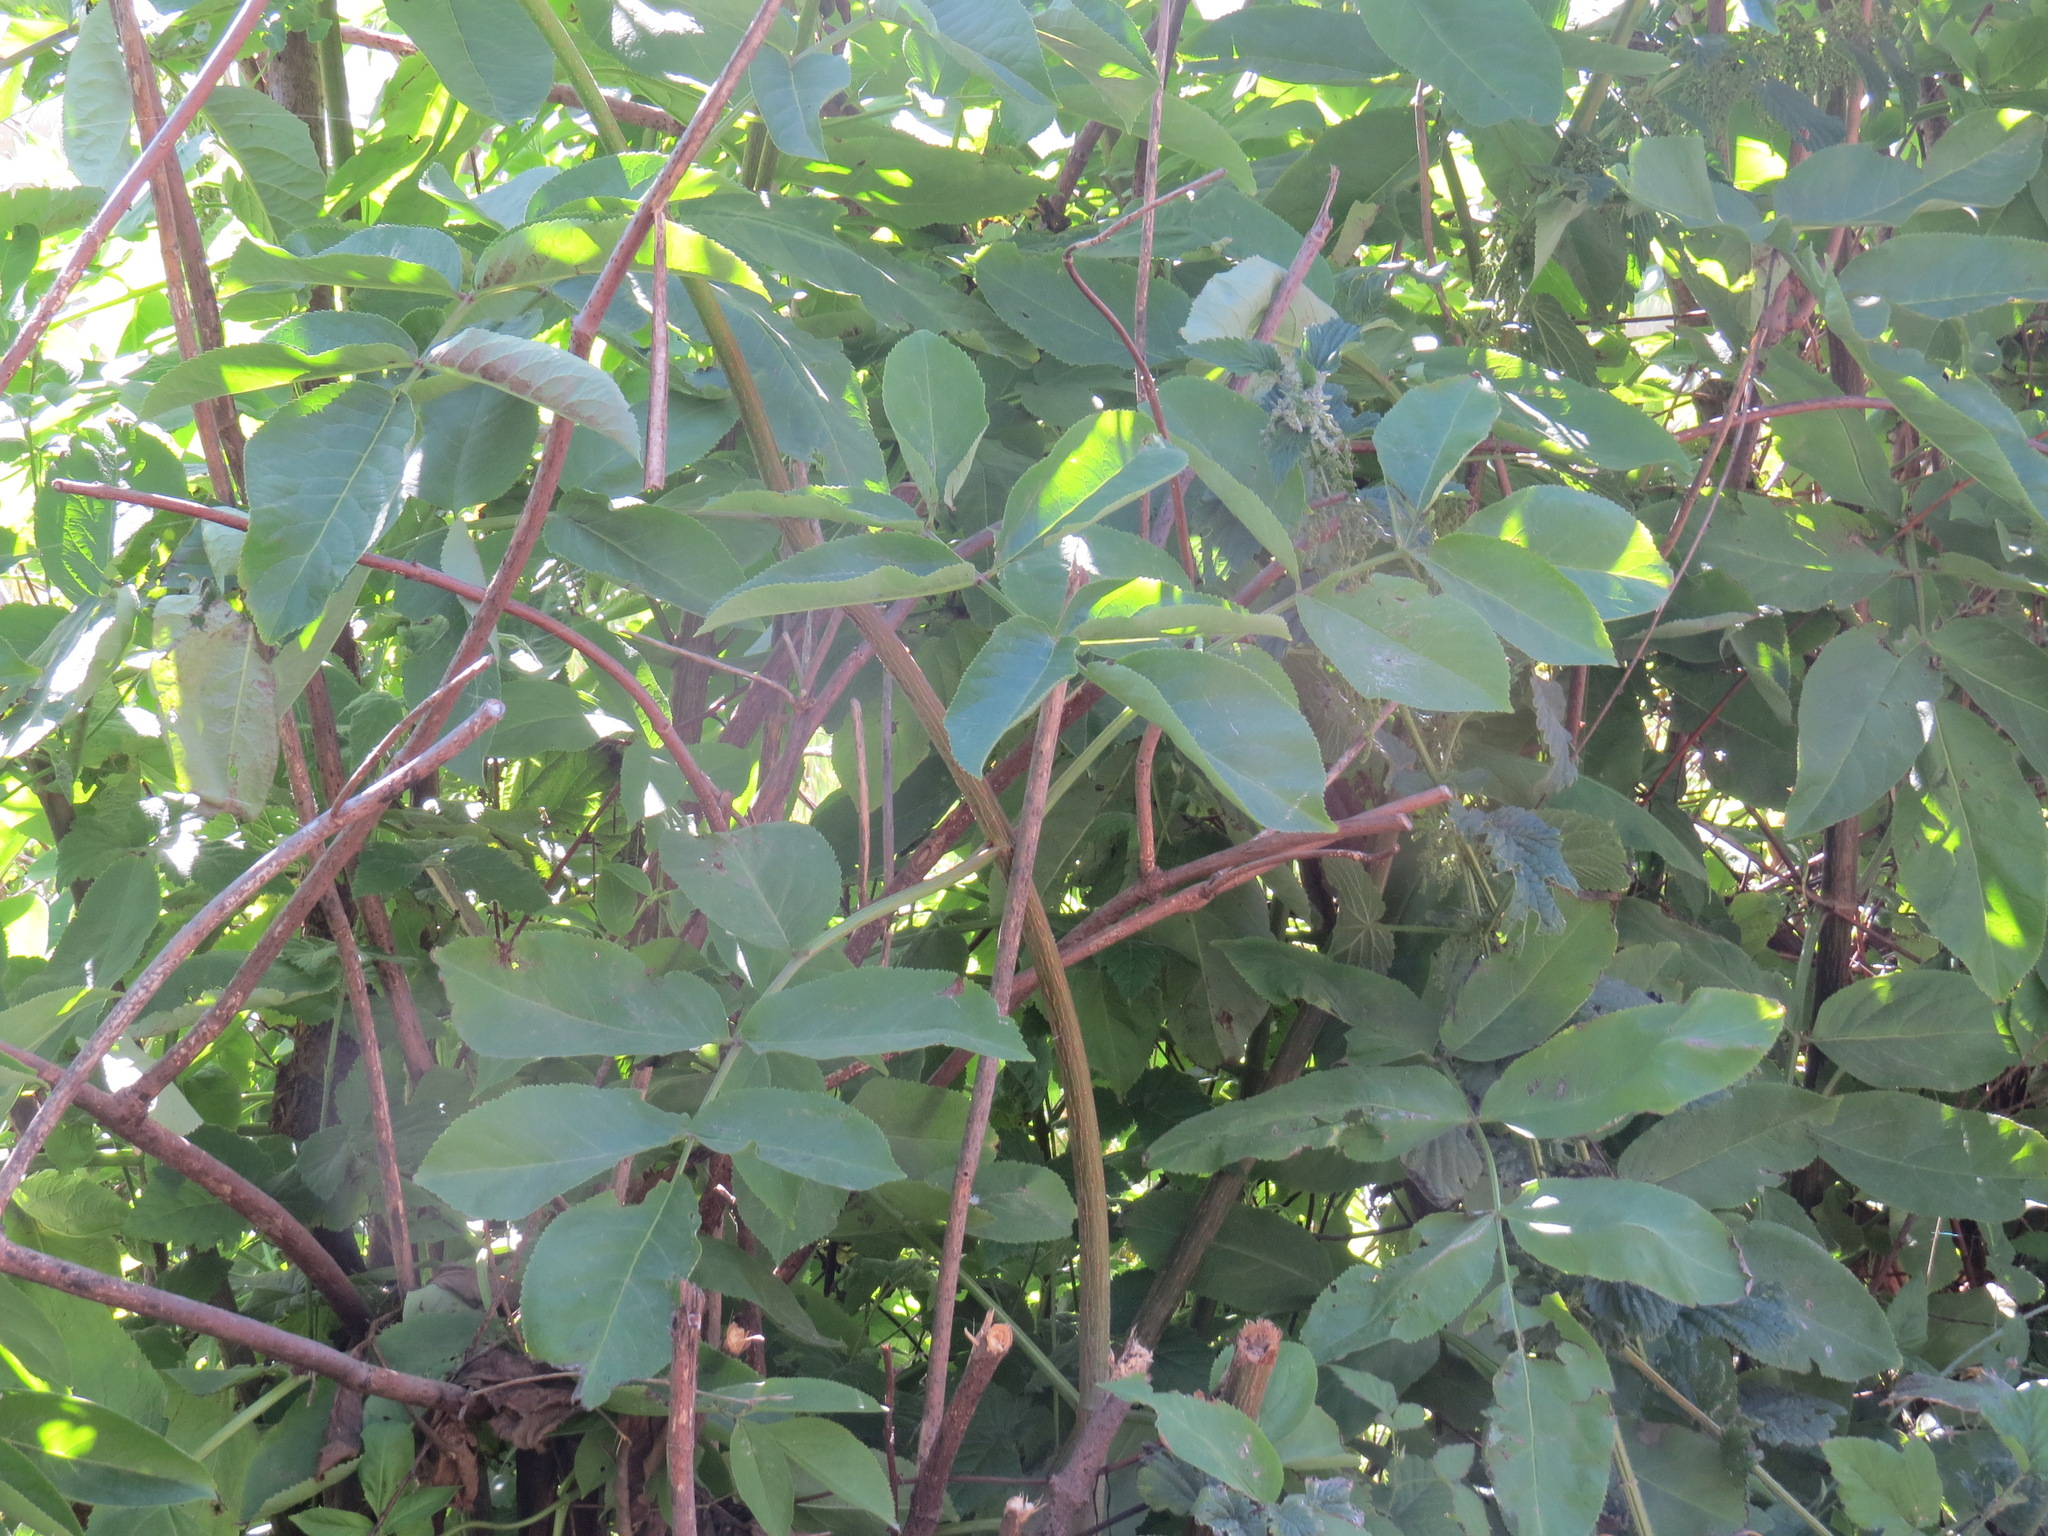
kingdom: Plantae
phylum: Tracheophyta
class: Magnoliopsida
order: Dipsacales
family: Viburnaceae
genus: Sambucus
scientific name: Sambucus racemosa
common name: Red-berried elder
